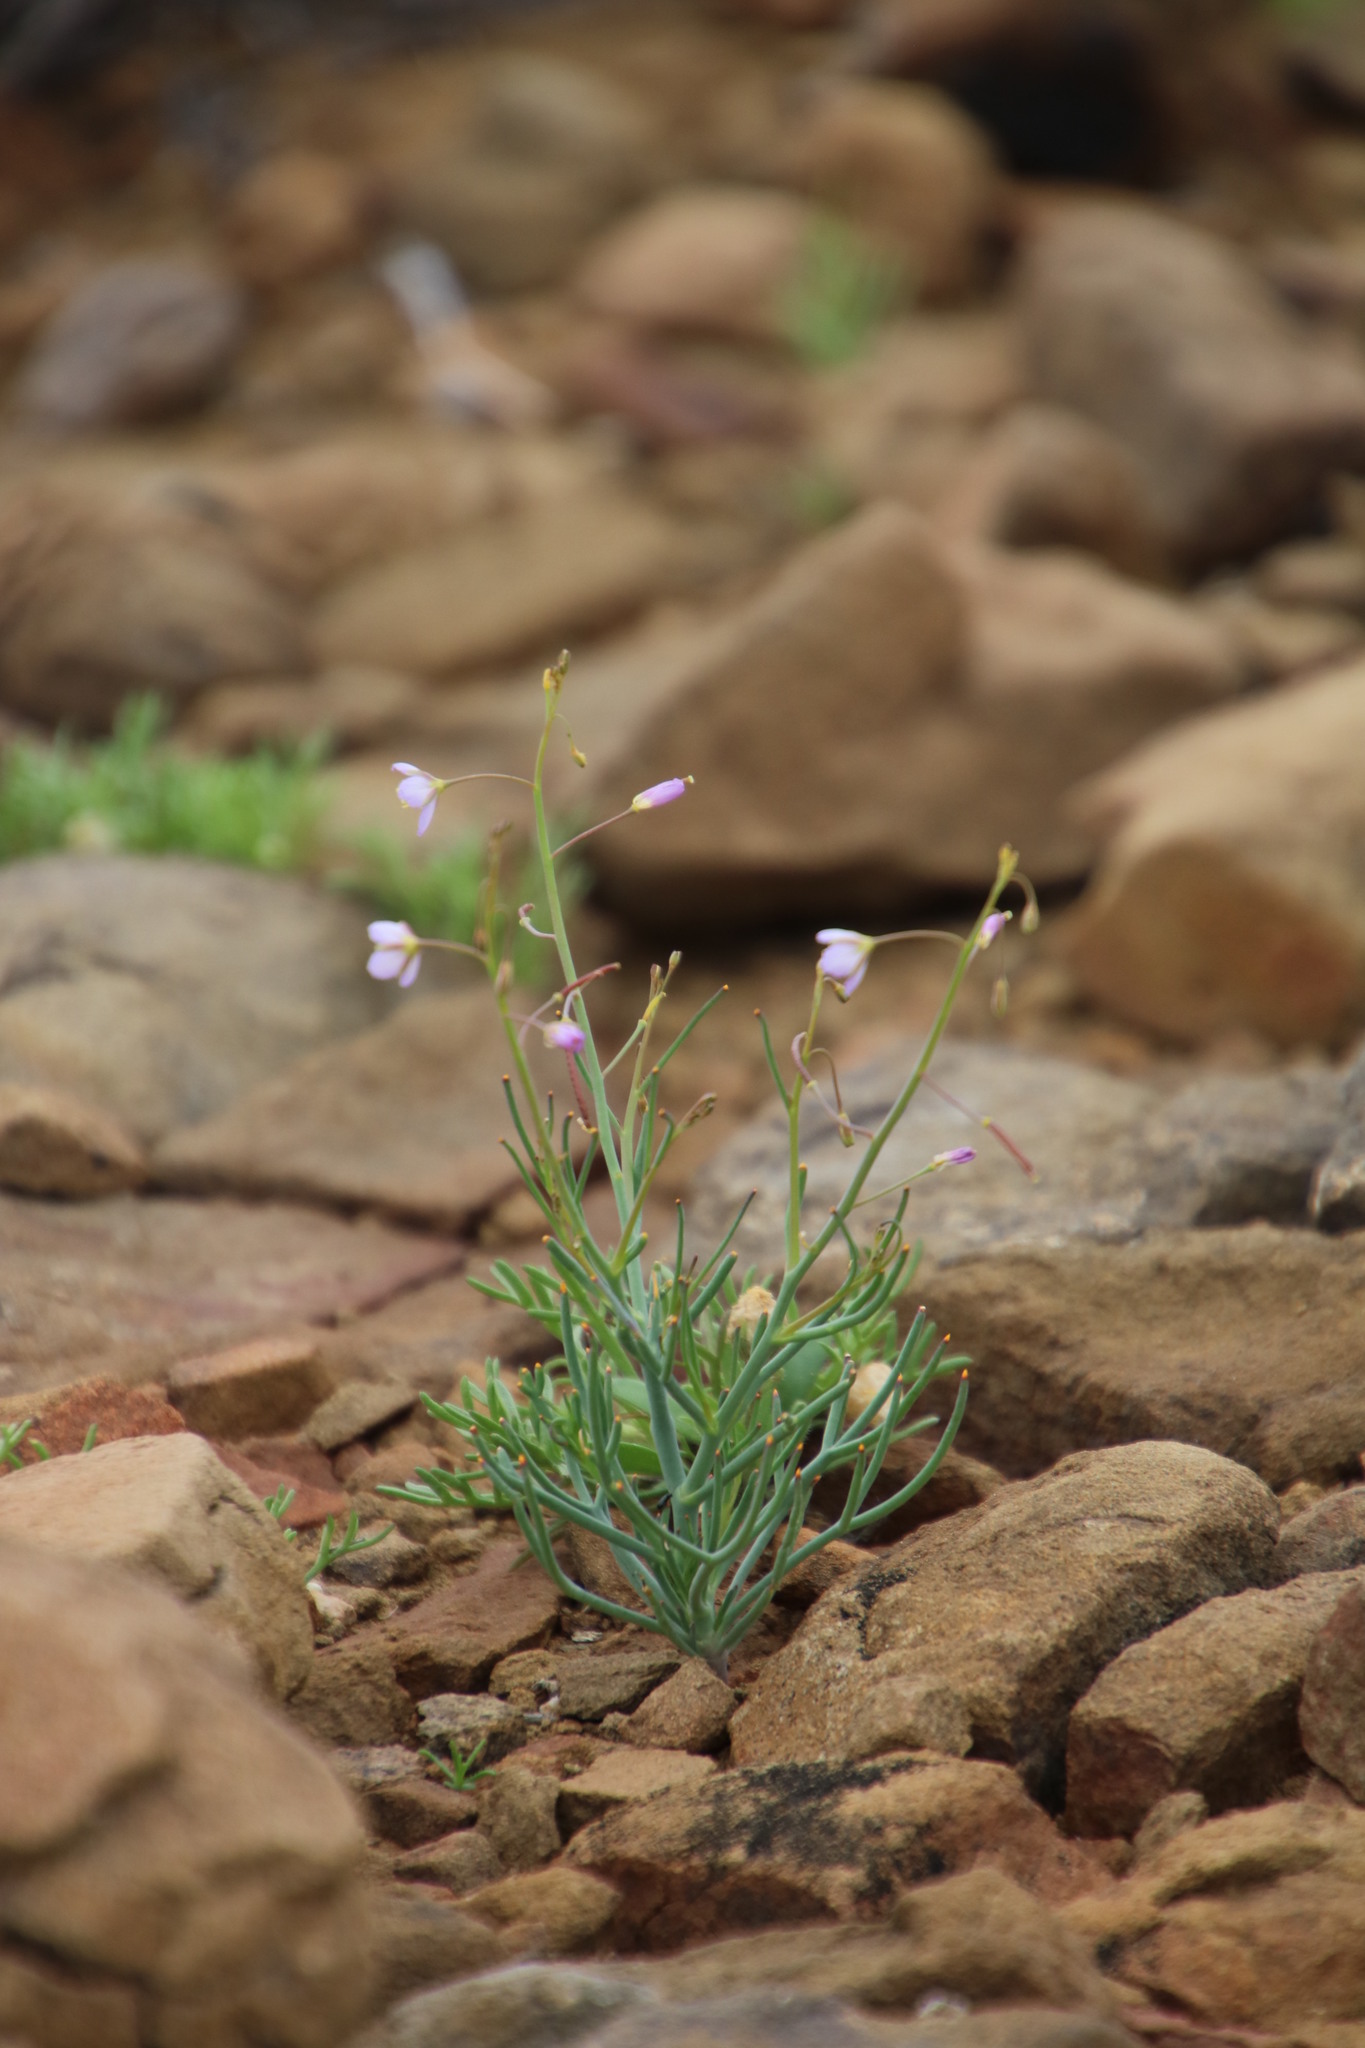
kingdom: Plantae
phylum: Tracheophyta
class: Magnoliopsida
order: Brassicales
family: Brassicaceae
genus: Heliophila
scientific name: Heliophila trifurca
